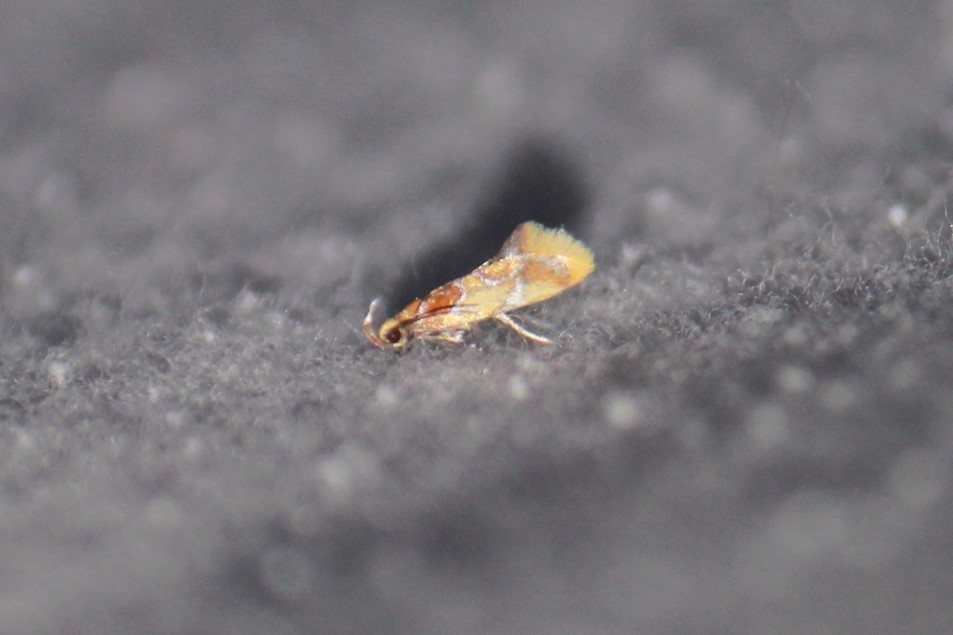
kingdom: Animalia
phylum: Arthropoda
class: Insecta
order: Lepidoptera
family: Oecophoridae
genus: Callima
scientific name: Callima argenticinctella
